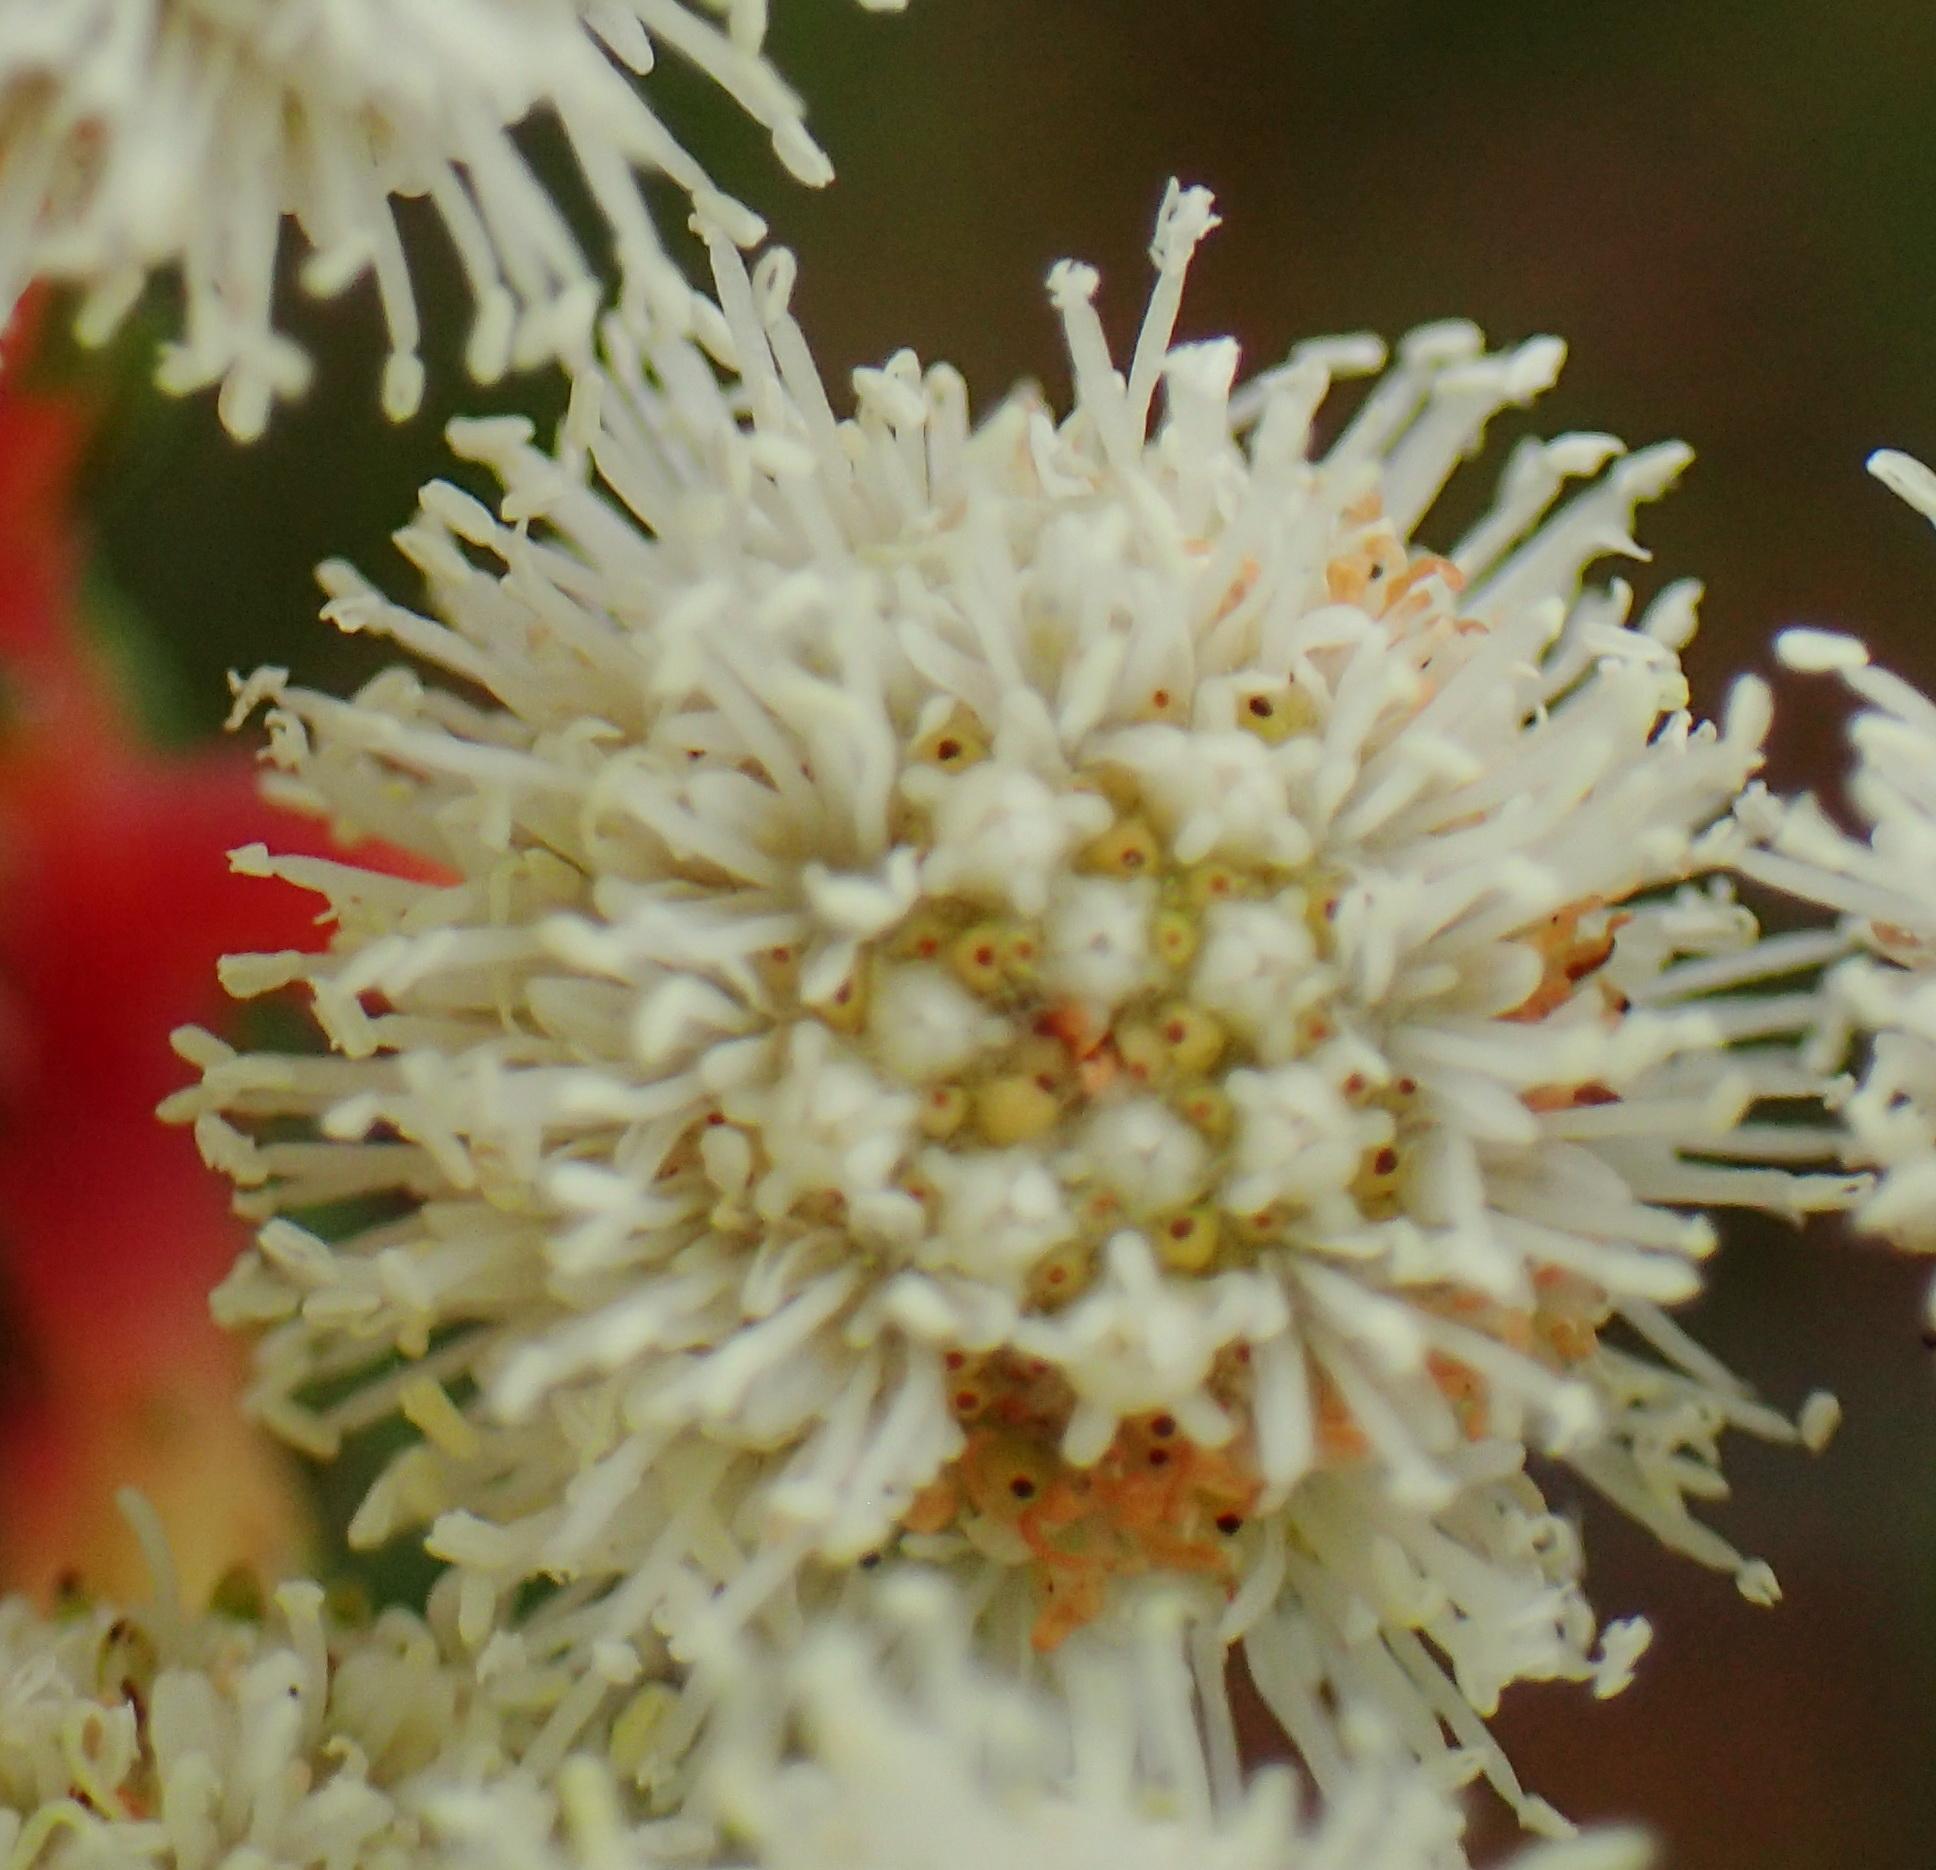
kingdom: Plantae
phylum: Tracheophyta
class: Magnoliopsida
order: Bruniales
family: Bruniaceae
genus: Berzelia
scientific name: Berzelia intermedia
